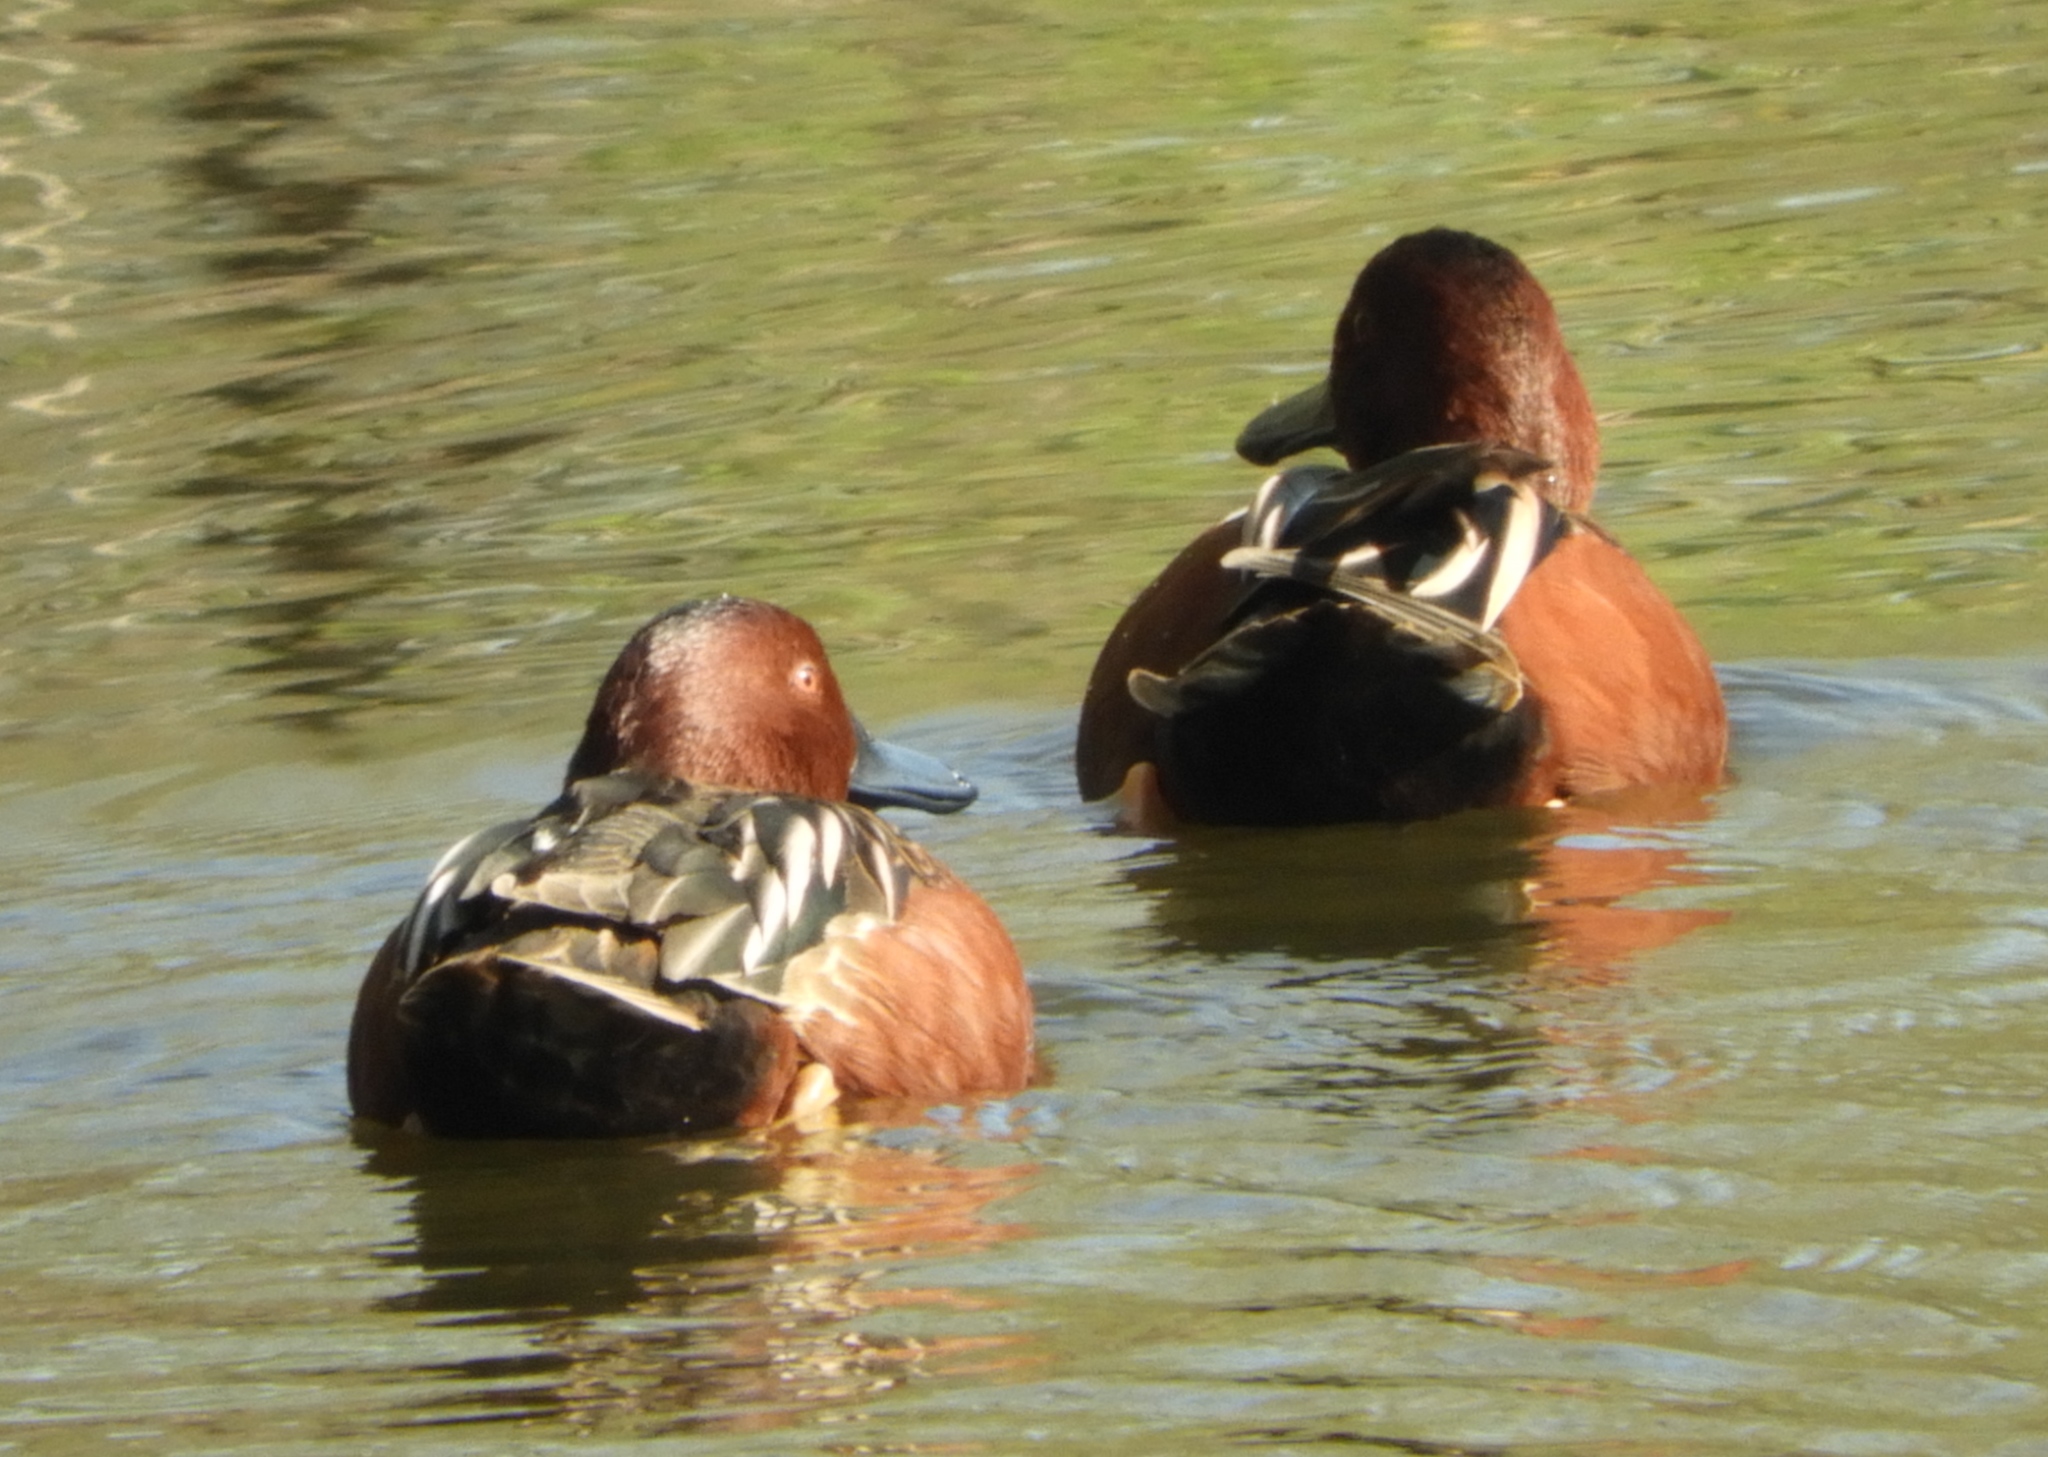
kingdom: Animalia
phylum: Chordata
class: Aves
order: Anseriformes
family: Anatidae
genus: Spatula
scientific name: Spatula cyanoptera
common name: Cinnamon teal
